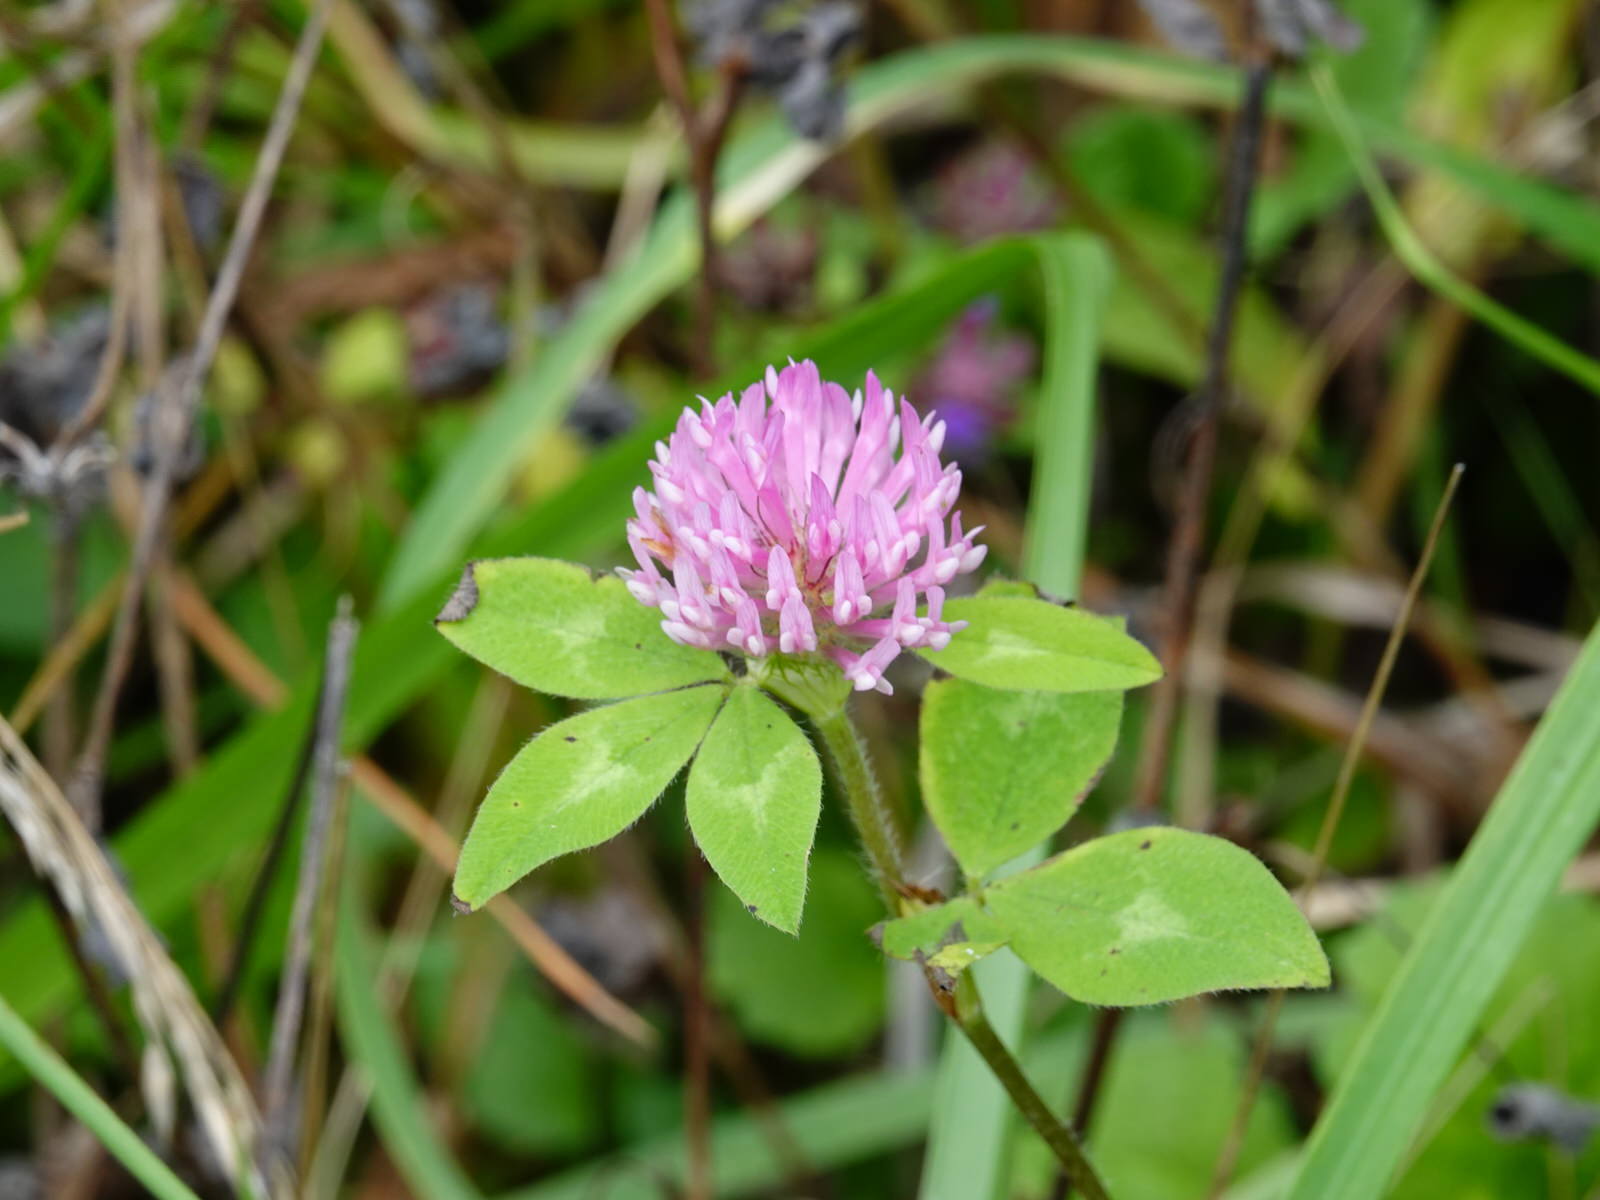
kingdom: Plantae
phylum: Tracheophyta
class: Magnoliopsida
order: Fabales
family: Fabaceae
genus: Trifolium
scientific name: Trifolium pratense
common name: Red clover
